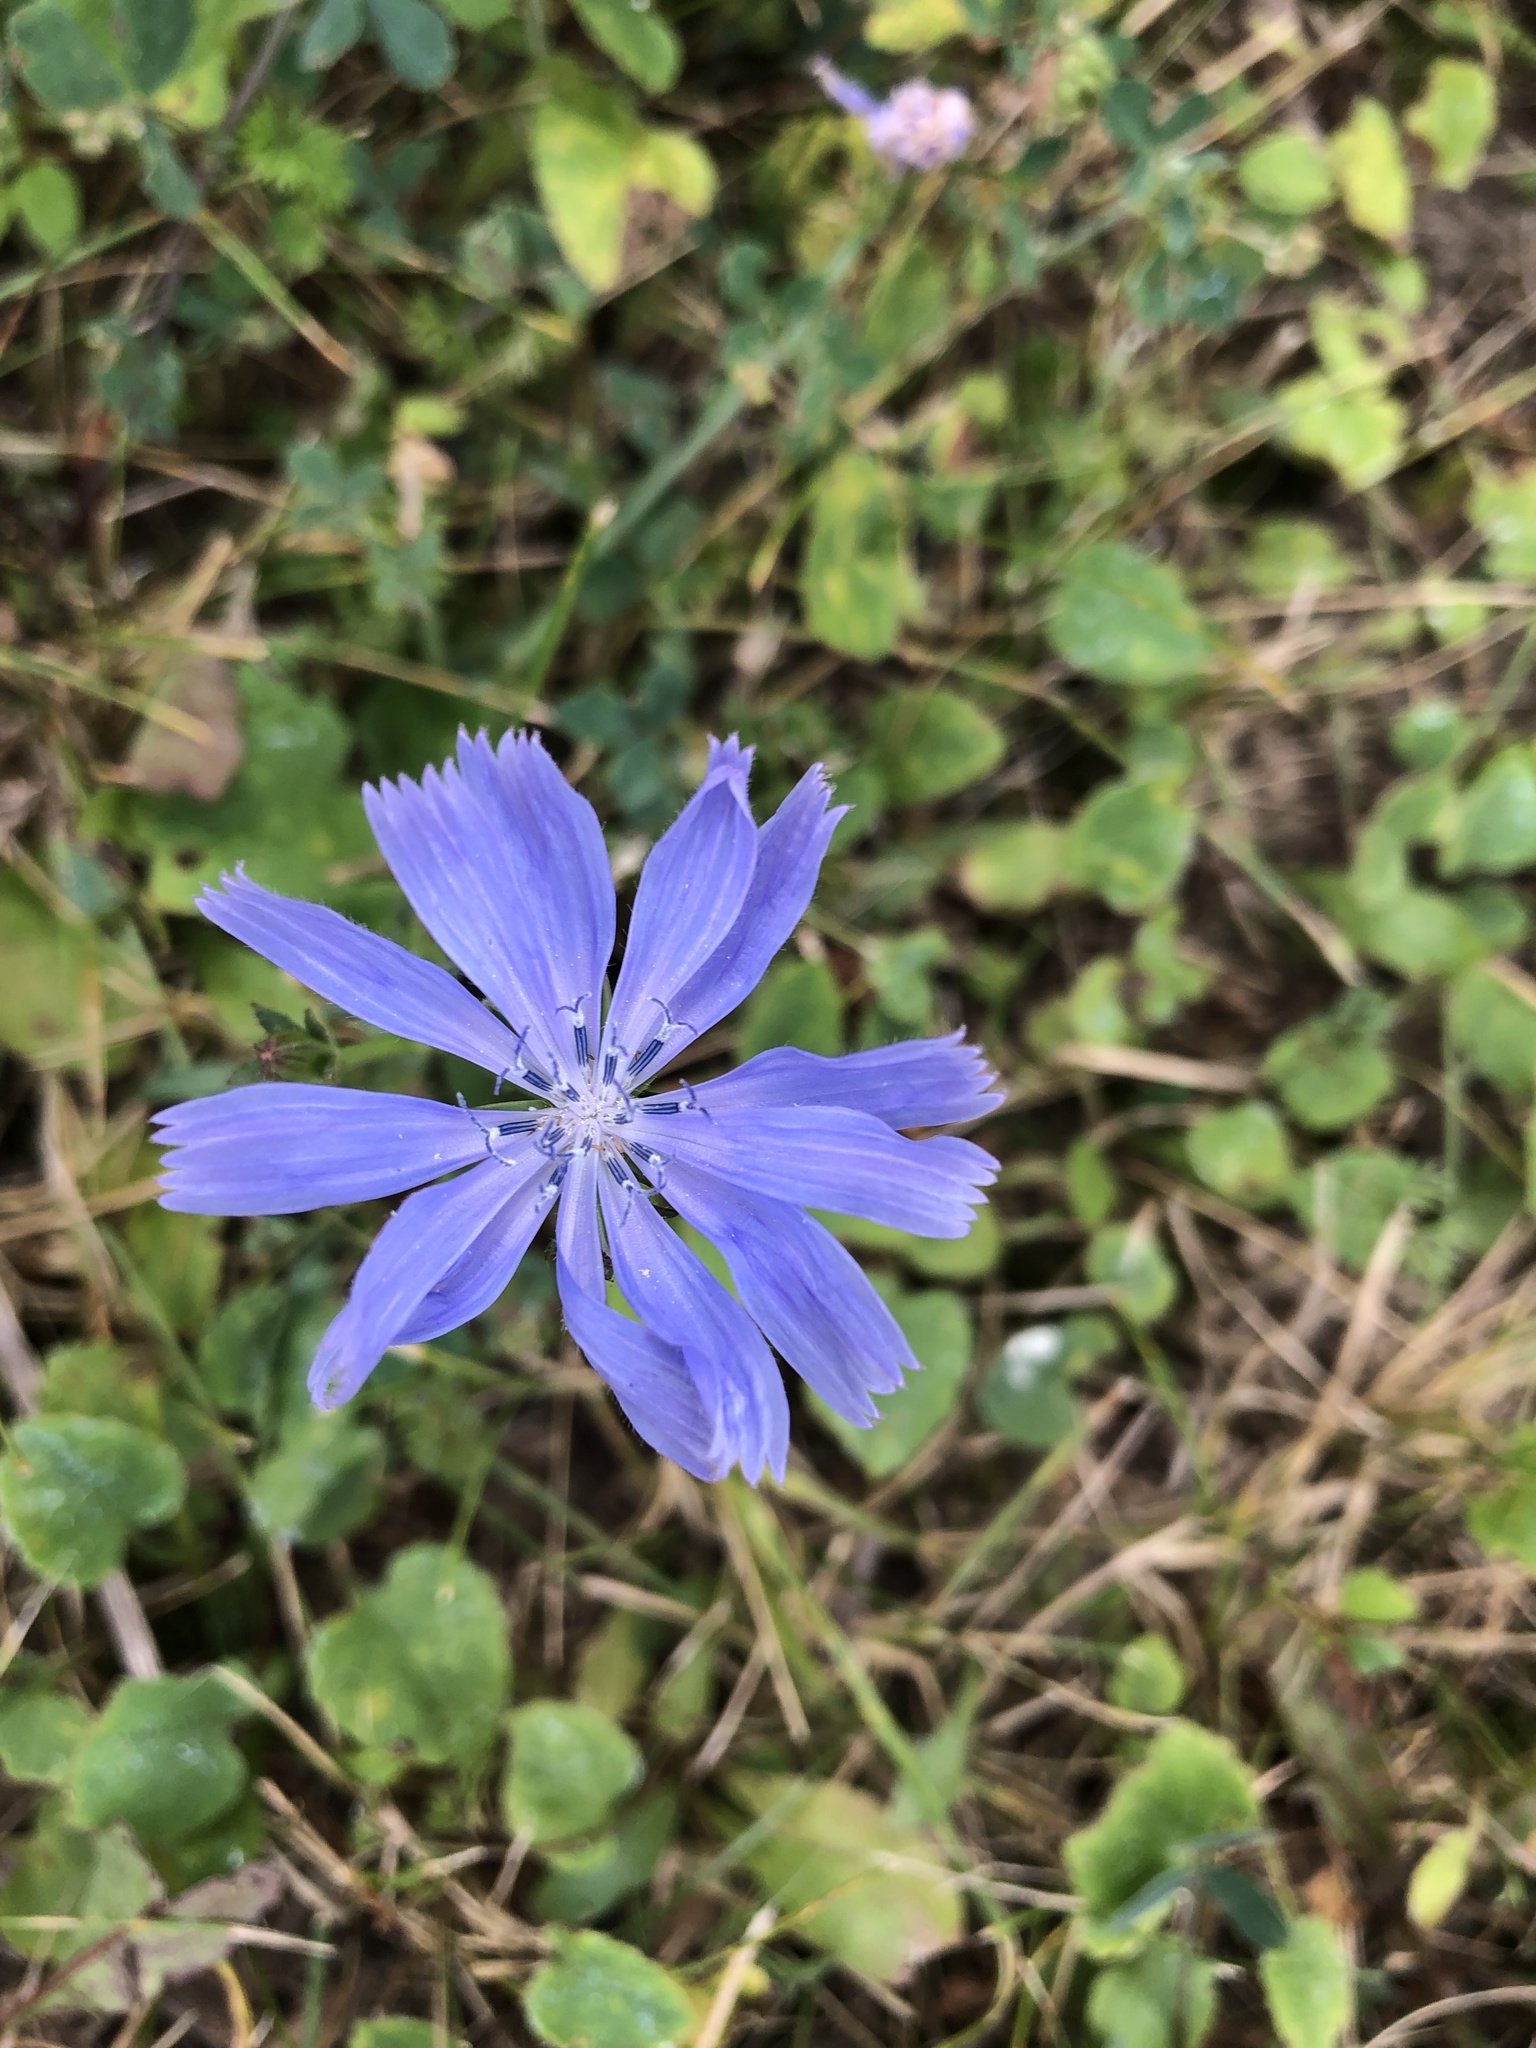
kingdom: Plantae
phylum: Tracheophyta
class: Magnoliopsida
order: Asterales
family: Asteraceae
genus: Cichorium
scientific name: Cichorium intybus
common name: Chicory
